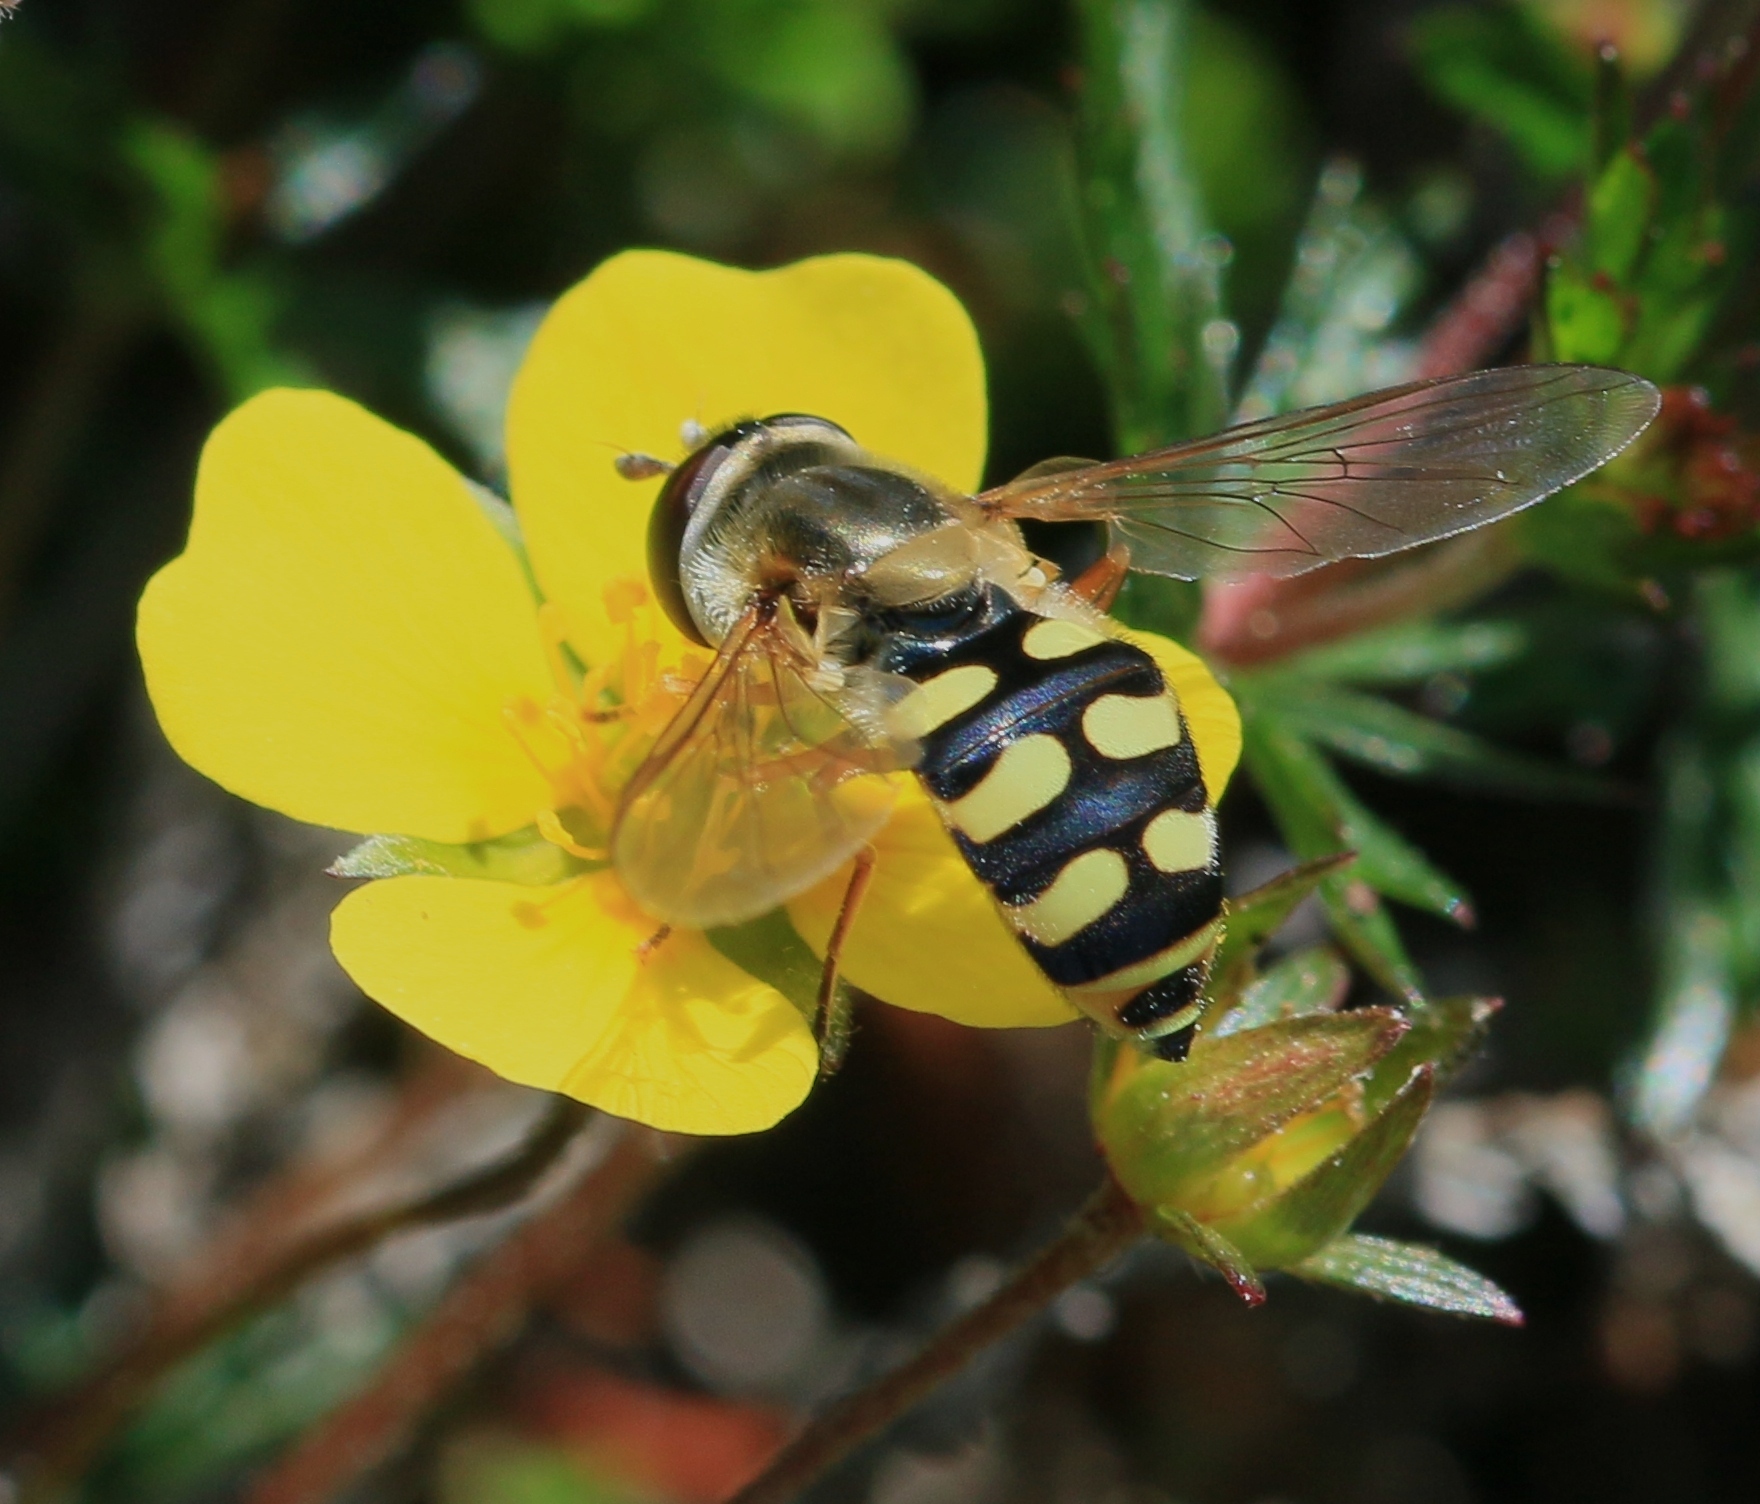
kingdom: Animalia
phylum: Arthropoda
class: Insecta
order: Diptera
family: Syrphidae
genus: Eupeodes
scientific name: Eupeodes corollae
